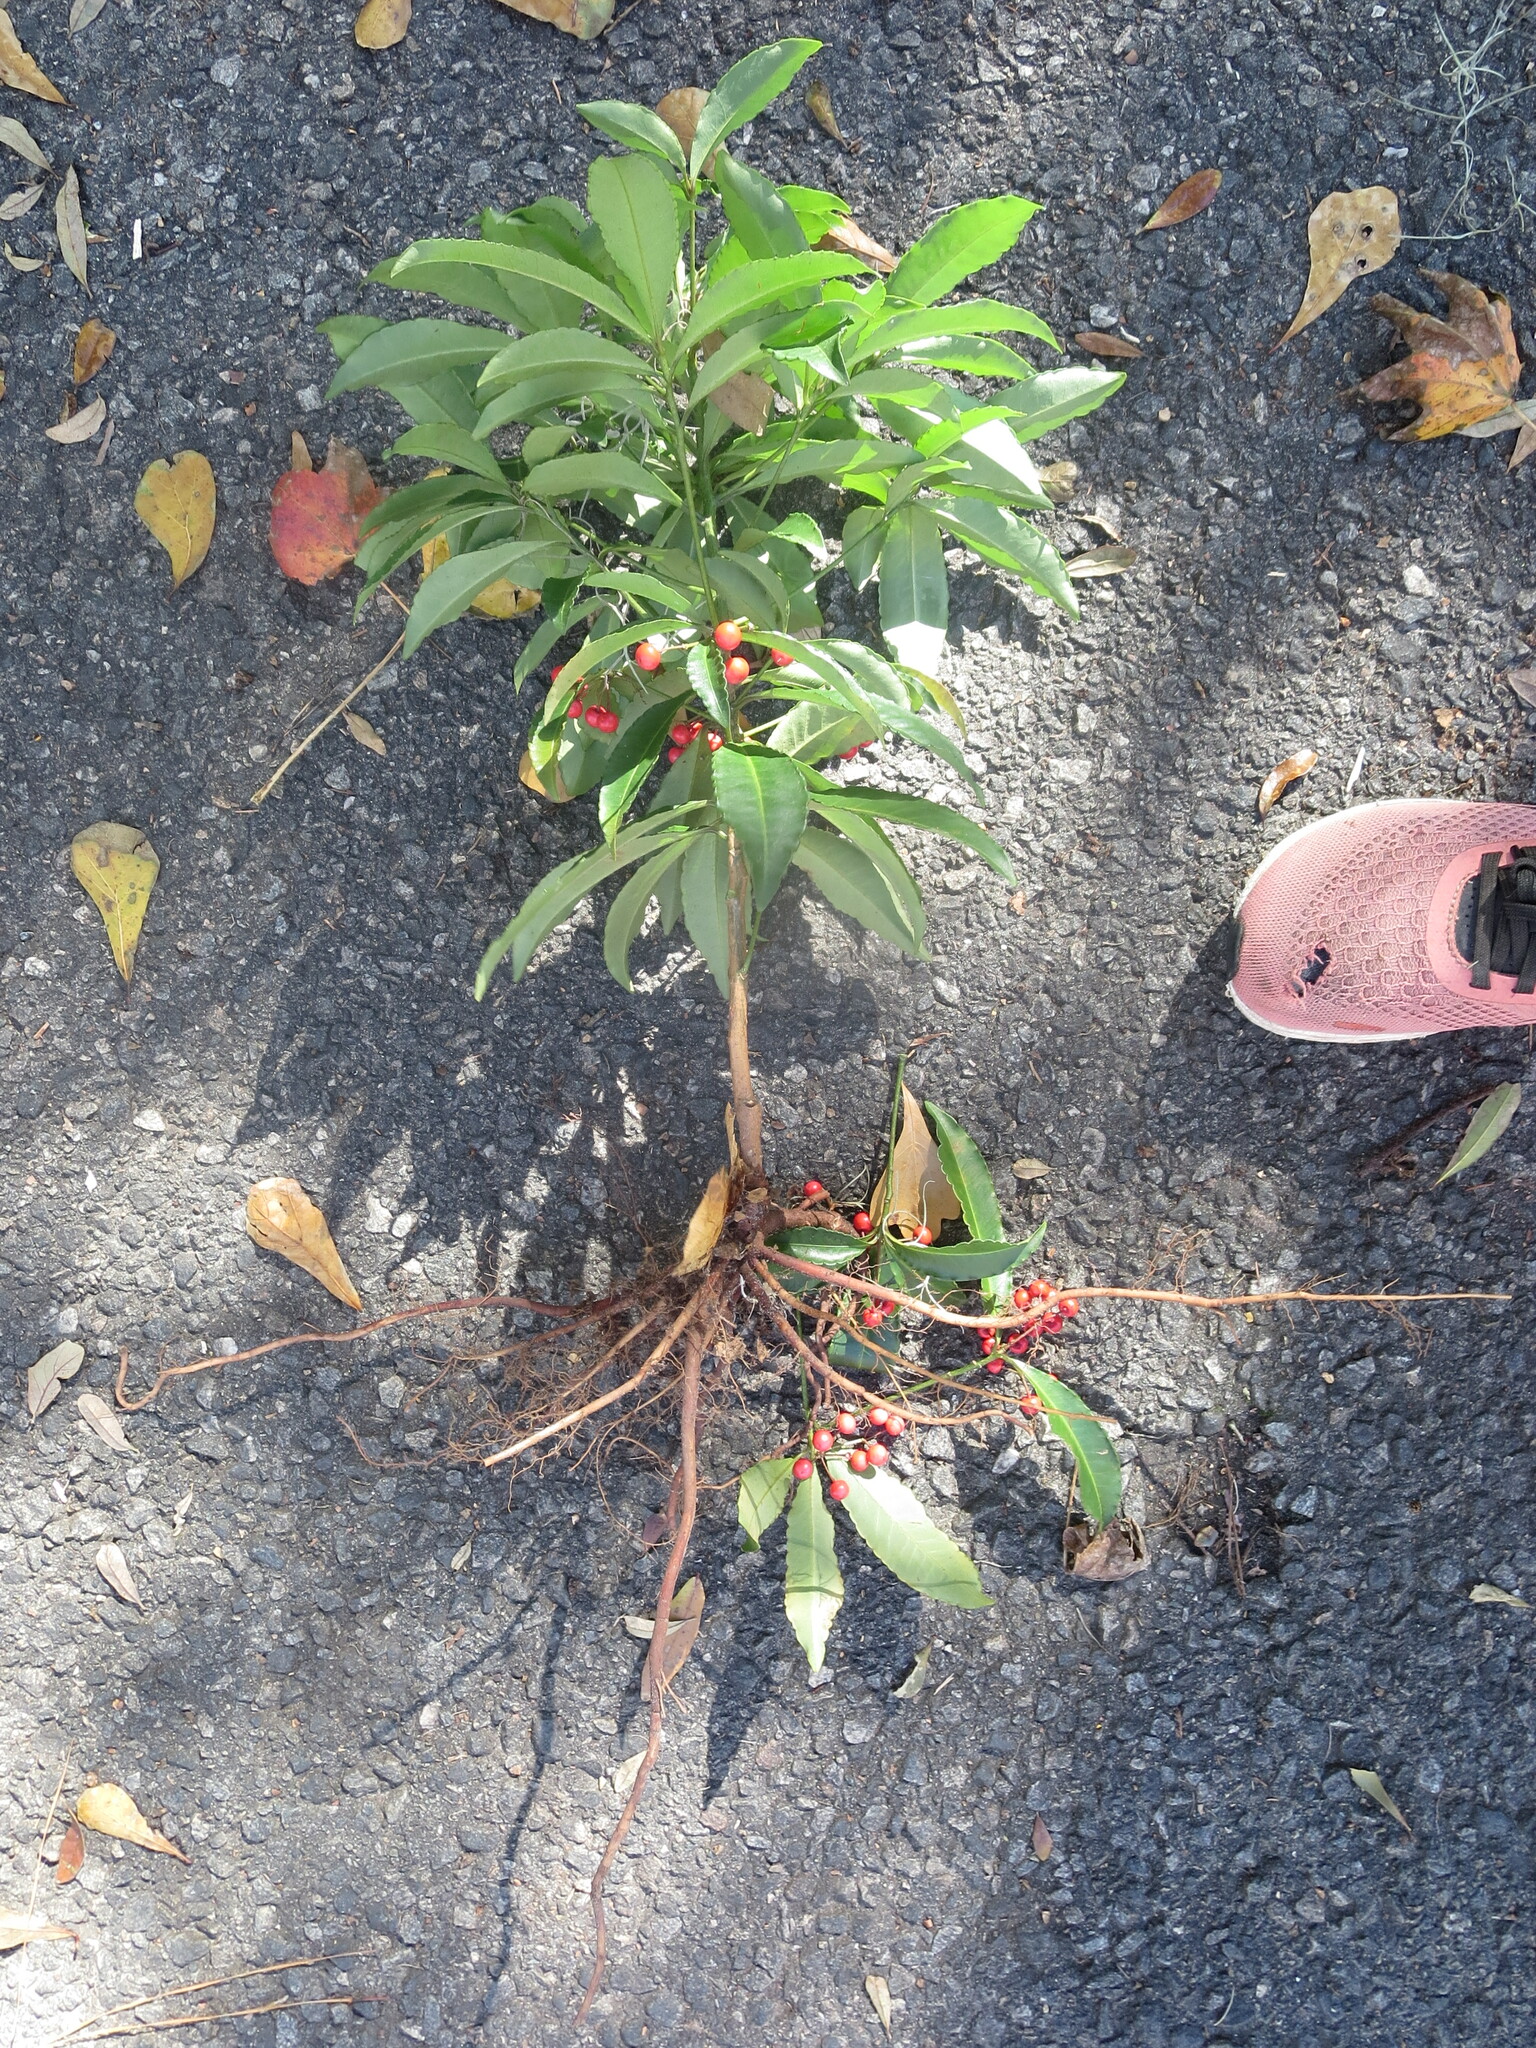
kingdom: Plantae
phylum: Tracheophyta
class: Magnoliopsida
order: Ericales
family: Primulaceae
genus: Ardisia
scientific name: Ardisia crenata
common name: Hen's eyes
